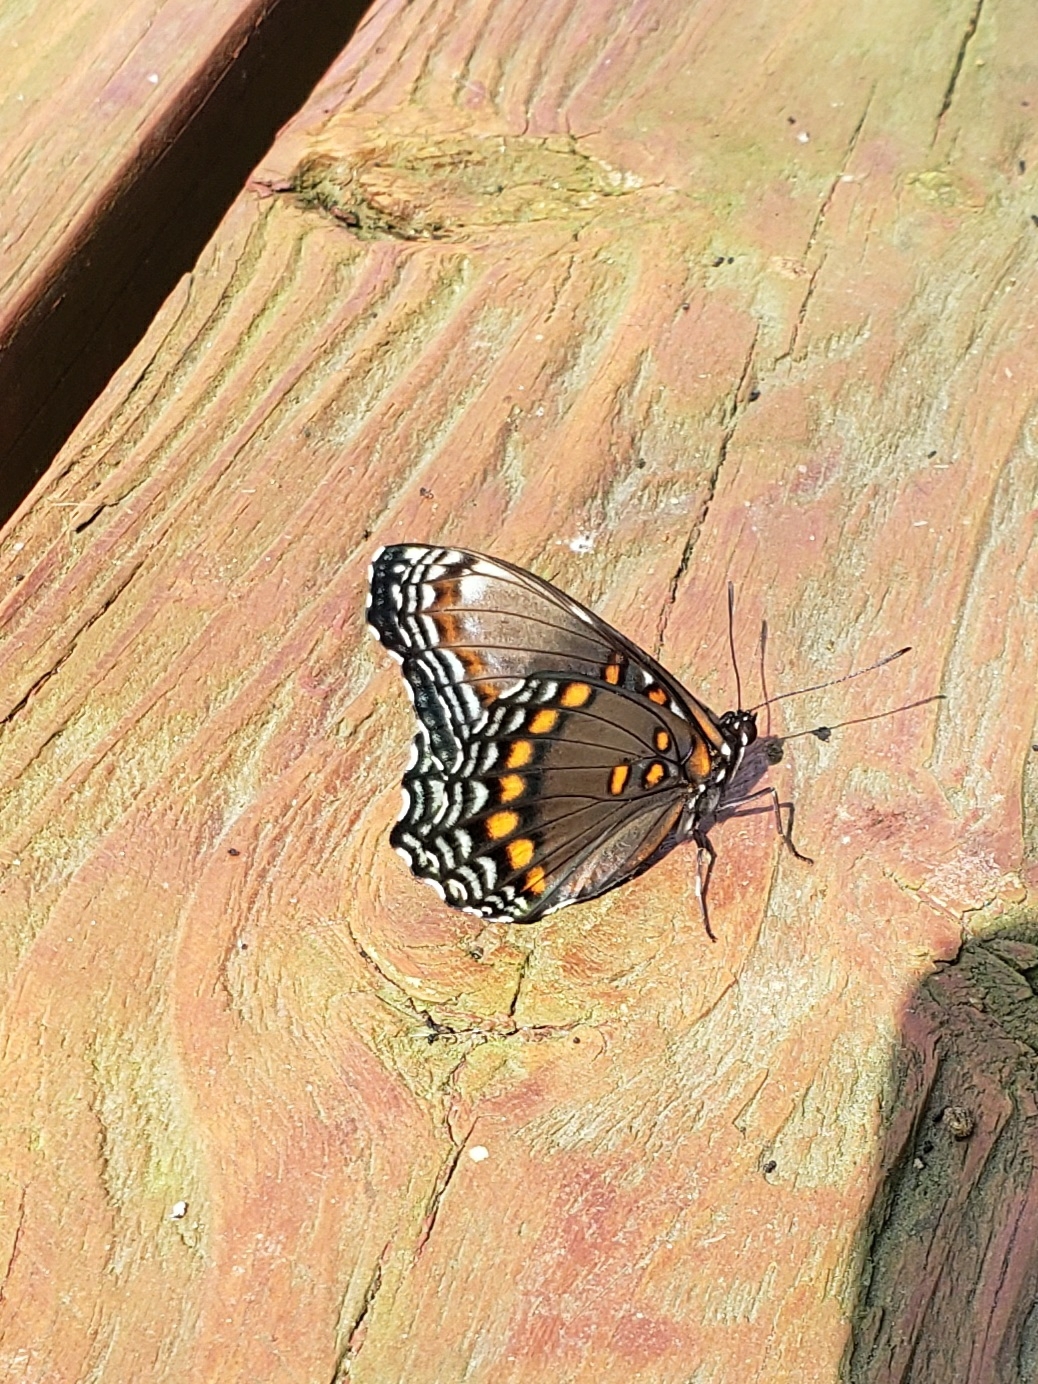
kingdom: Animalia
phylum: Arthropoda
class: Insecta
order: Lepidoptera
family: Nymphalidae
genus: Limenitis
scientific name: Limenitis astyanax
